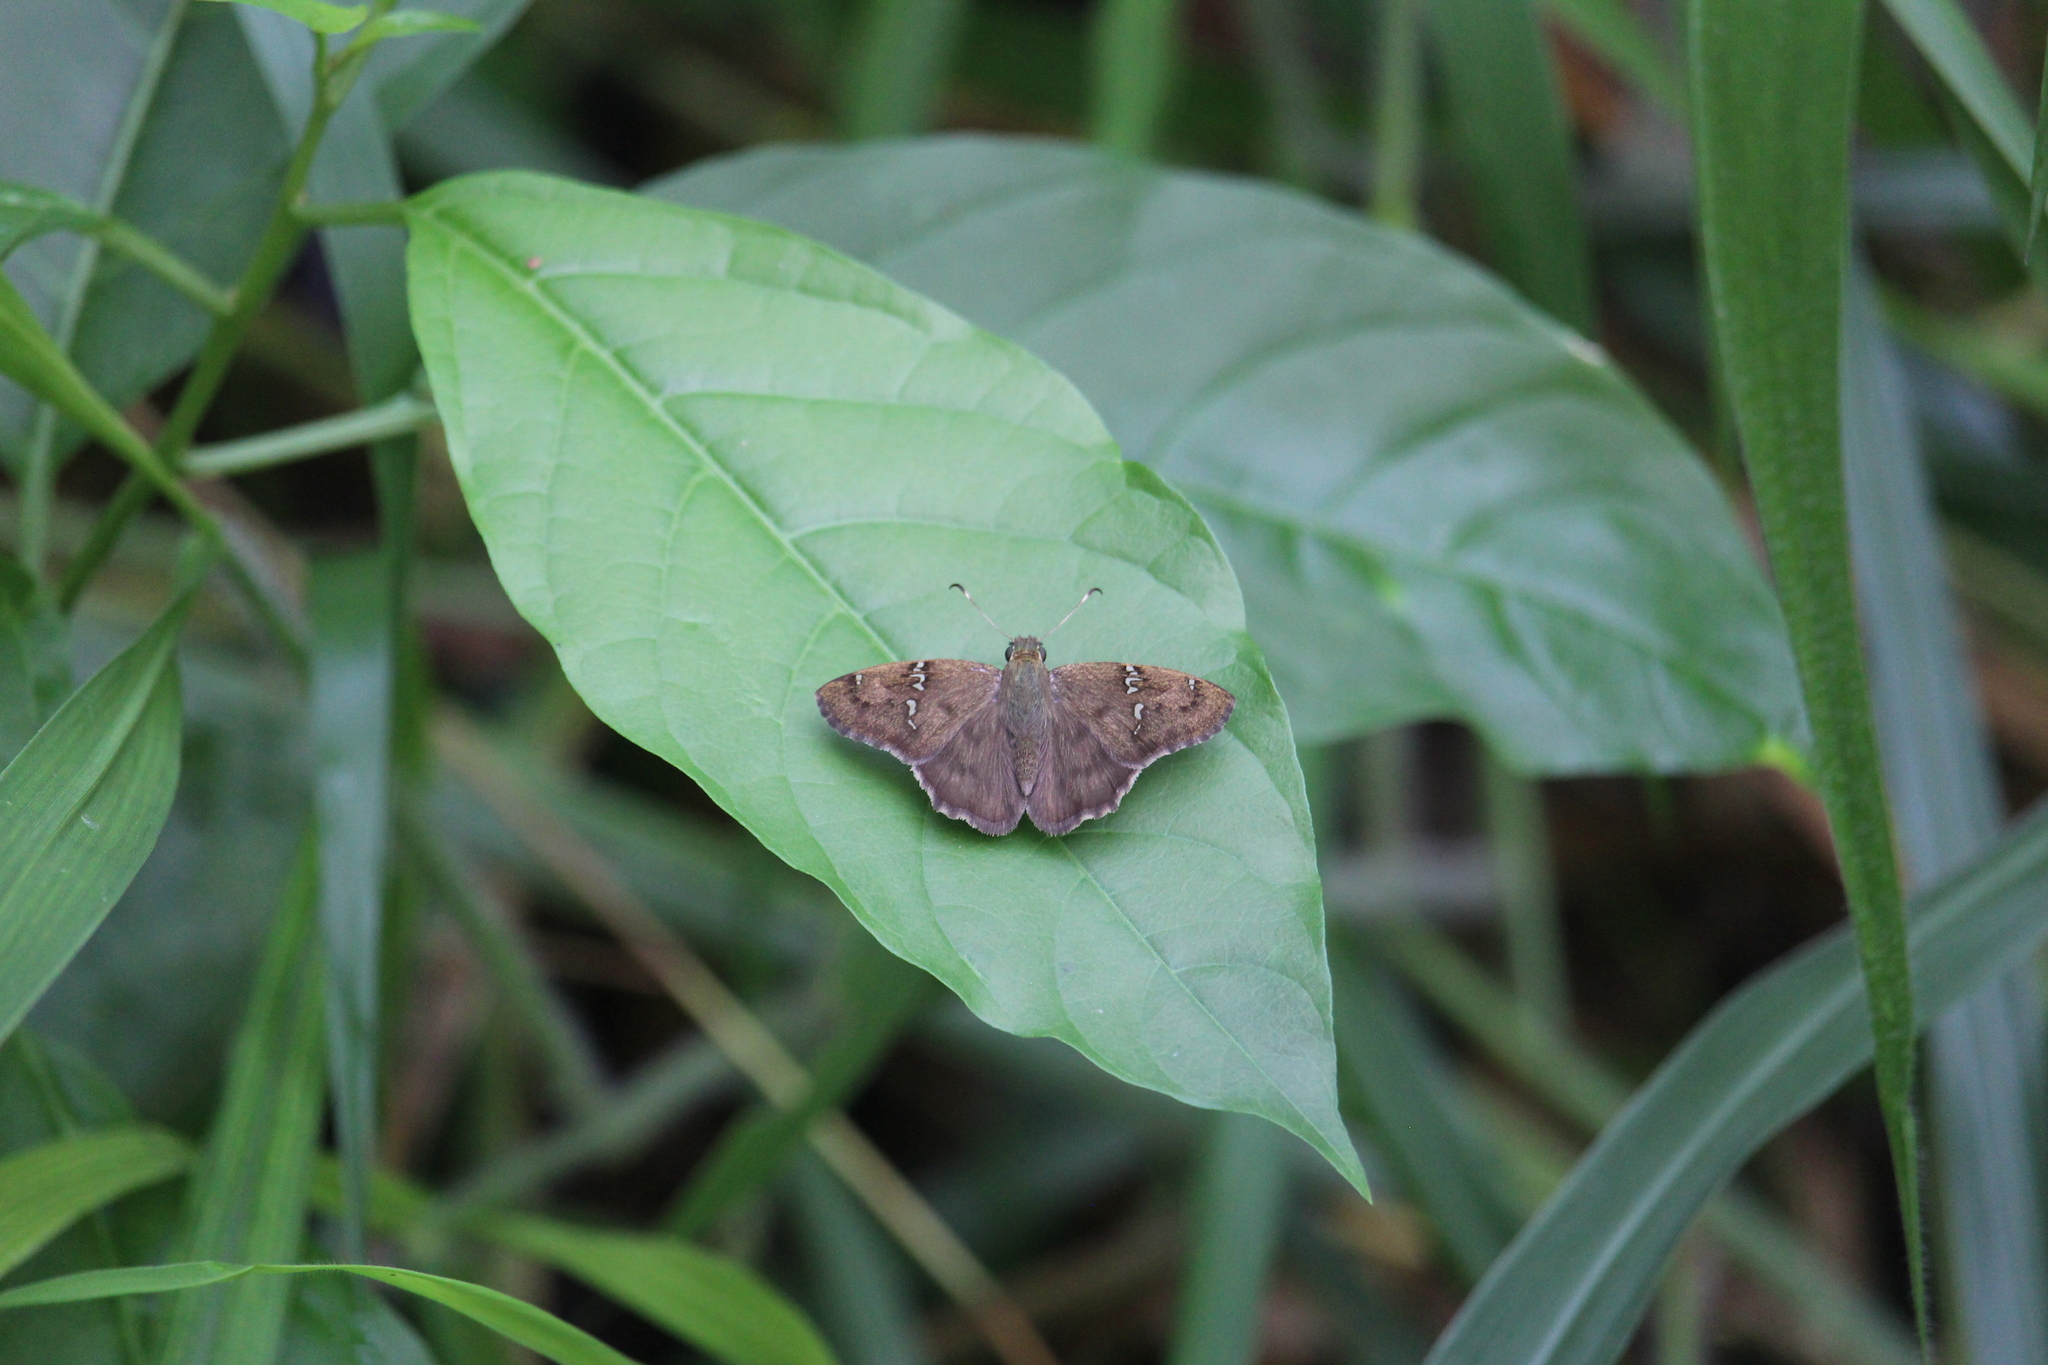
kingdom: Animalia
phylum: Arthropoda
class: Insecta
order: Lepidoptera
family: Hesperiidae
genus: Autochton
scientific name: Autochton potrillo
